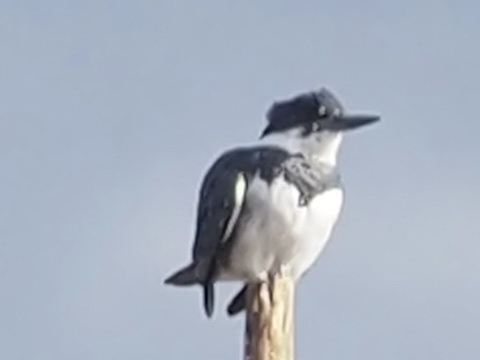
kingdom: Animalia
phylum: Chordata
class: Aves
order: Coraciiformes
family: Alcedinidae
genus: Megaceryle
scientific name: Megaceryle alcyon
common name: Belted kingfisher
